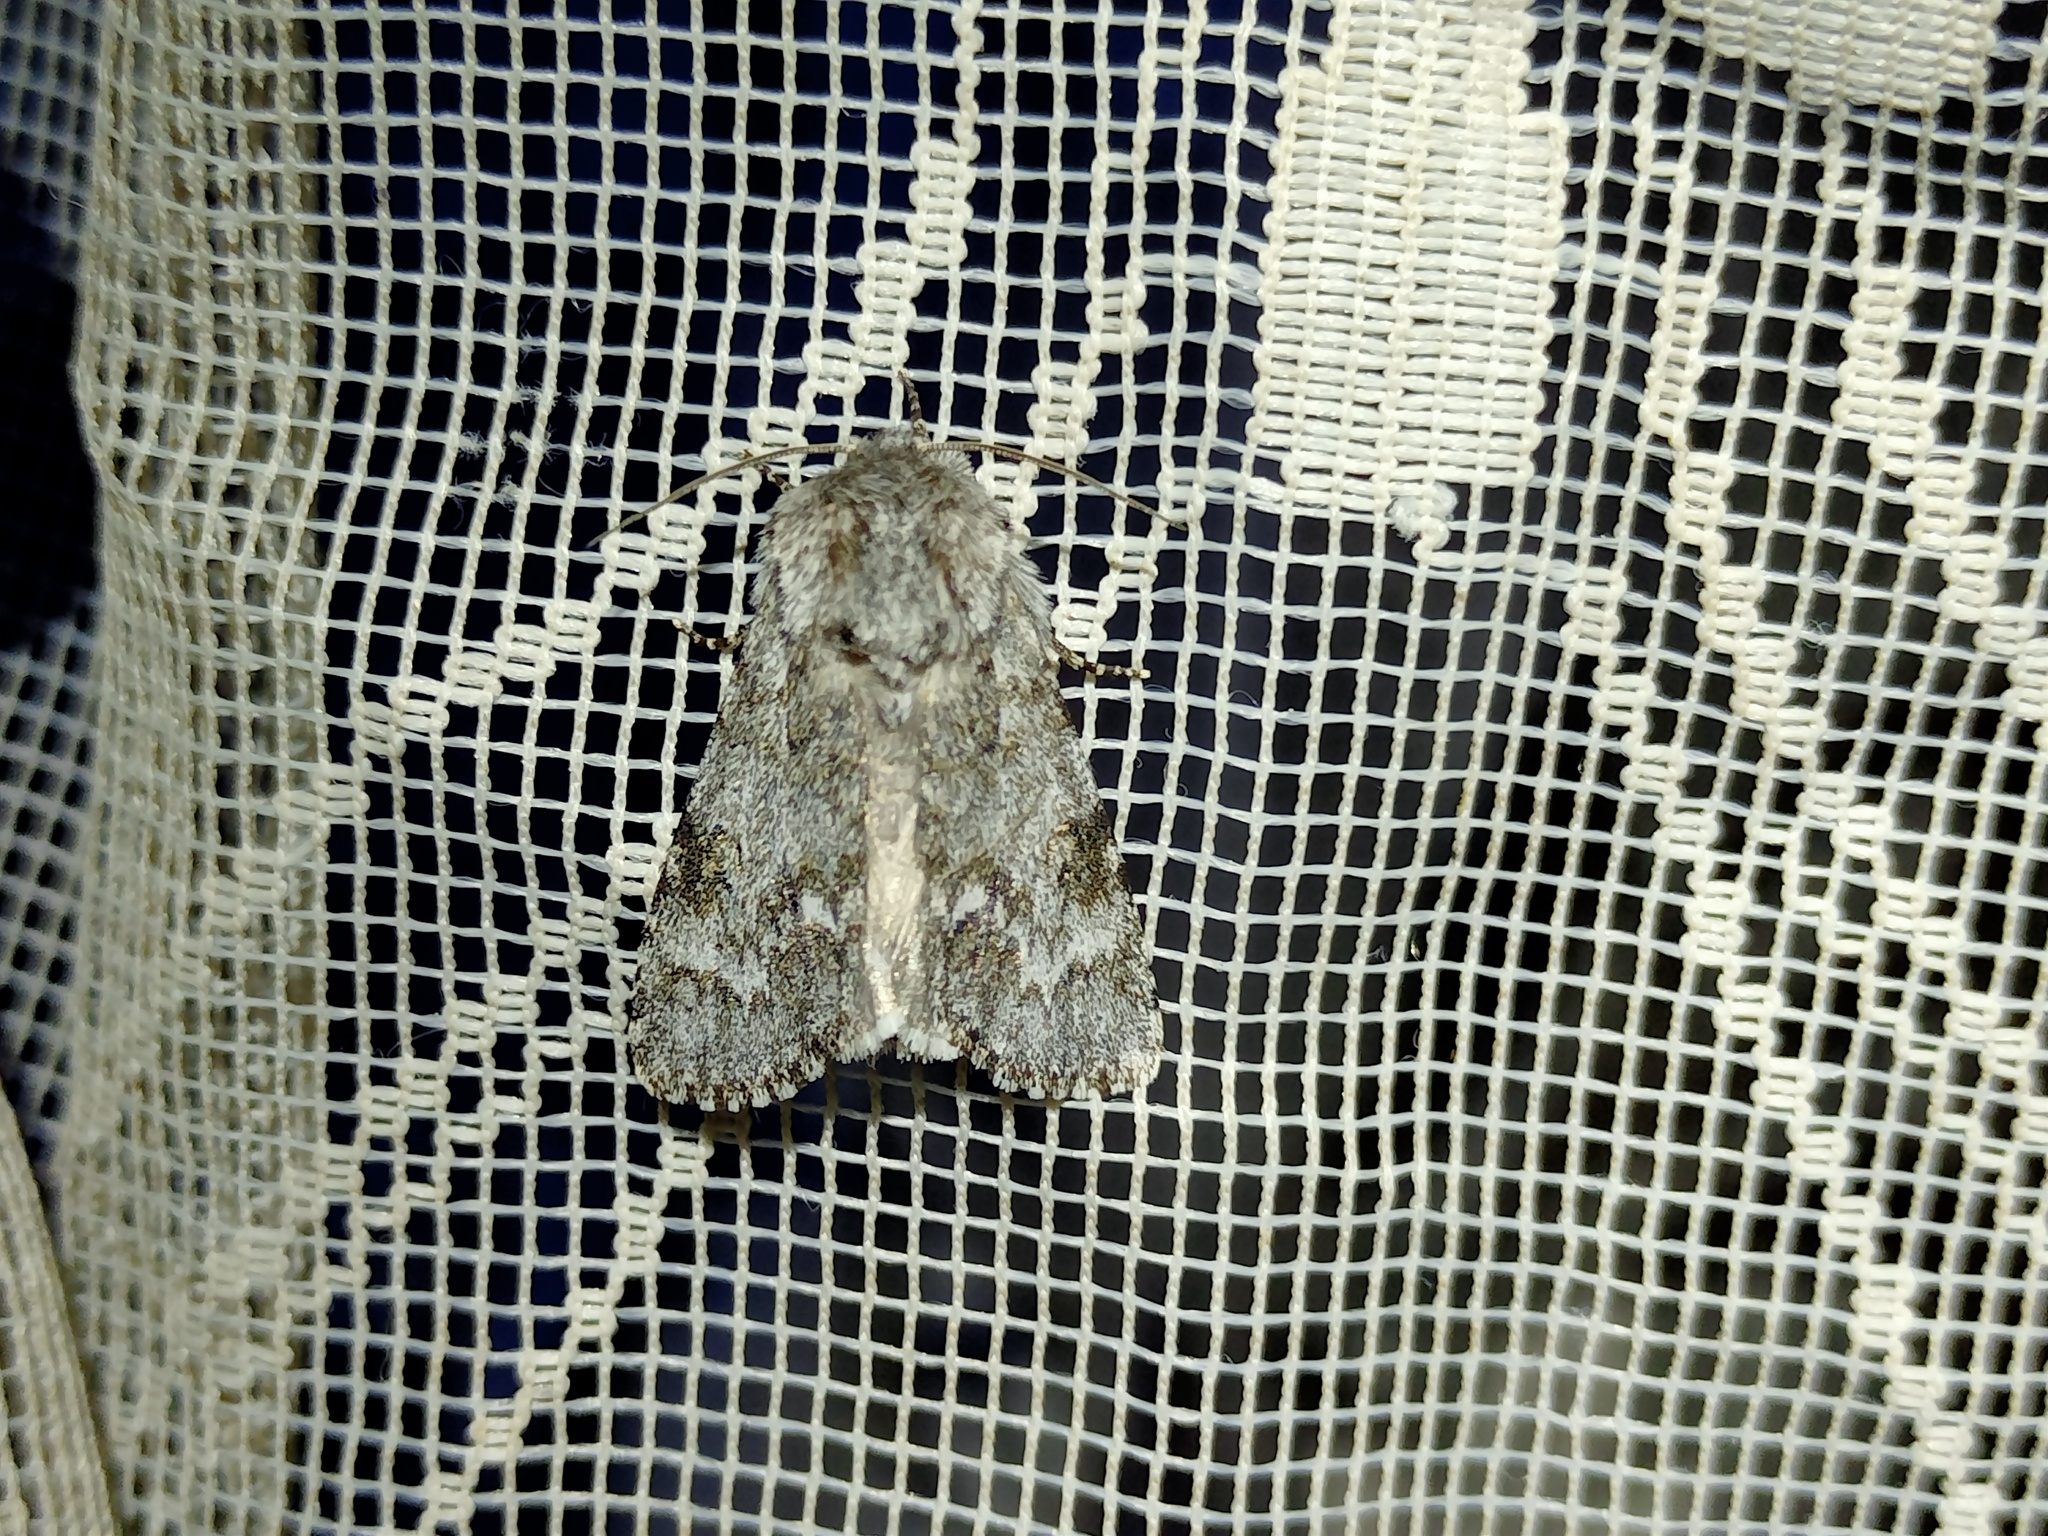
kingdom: Animalia
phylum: Arthropoda
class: Insecta
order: Lepidoptera
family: Noctuidae
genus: Acronicta
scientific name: Acronicta menyanthidis
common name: Light knot grass
